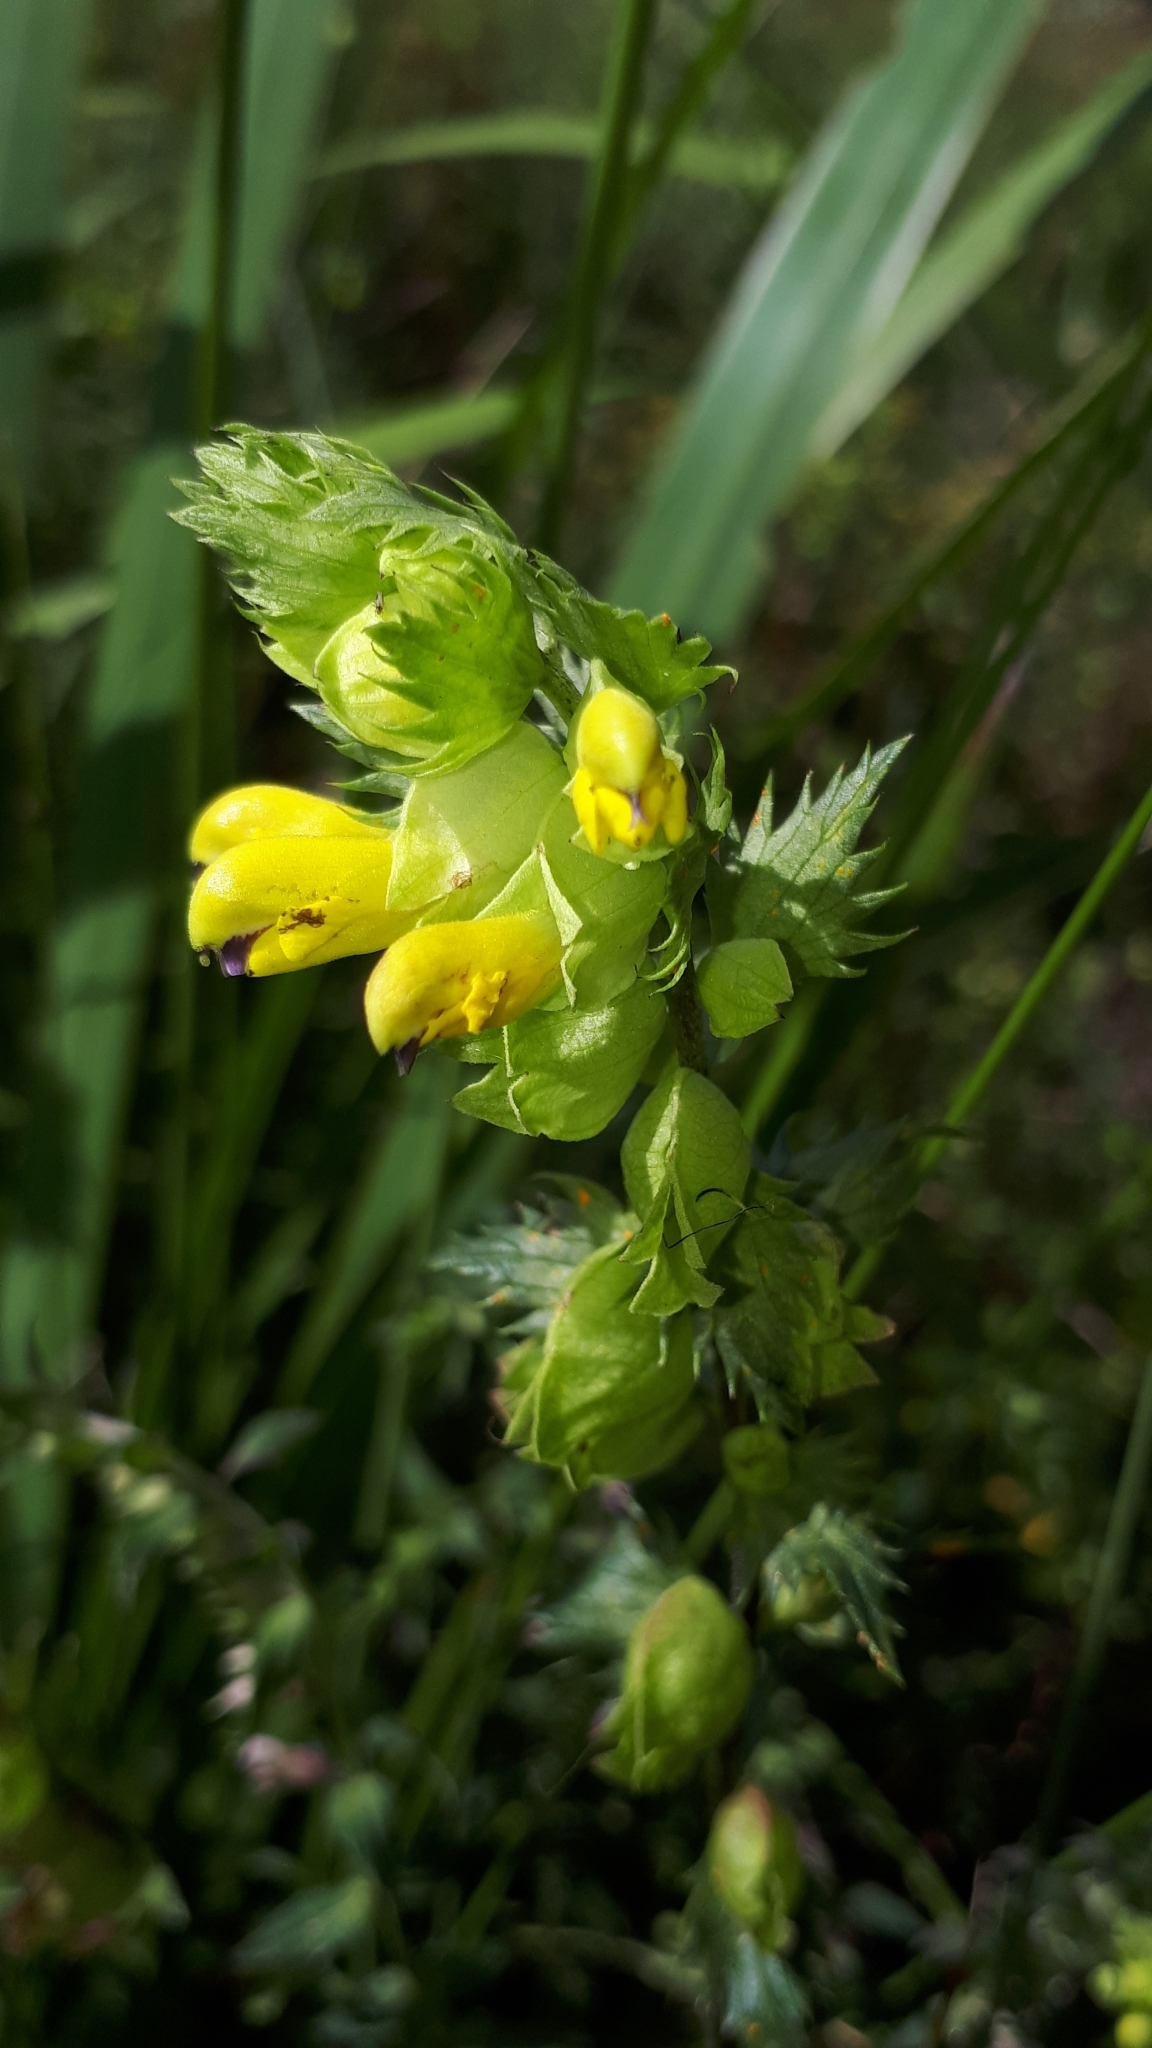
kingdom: Plantae
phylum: Tracheophyta
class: Magnoliopsida
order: Lamiales
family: Orobanchaceae
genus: Rhinanthus
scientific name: Rhinanthus serotinus
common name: Late-flowering yellow rattle
